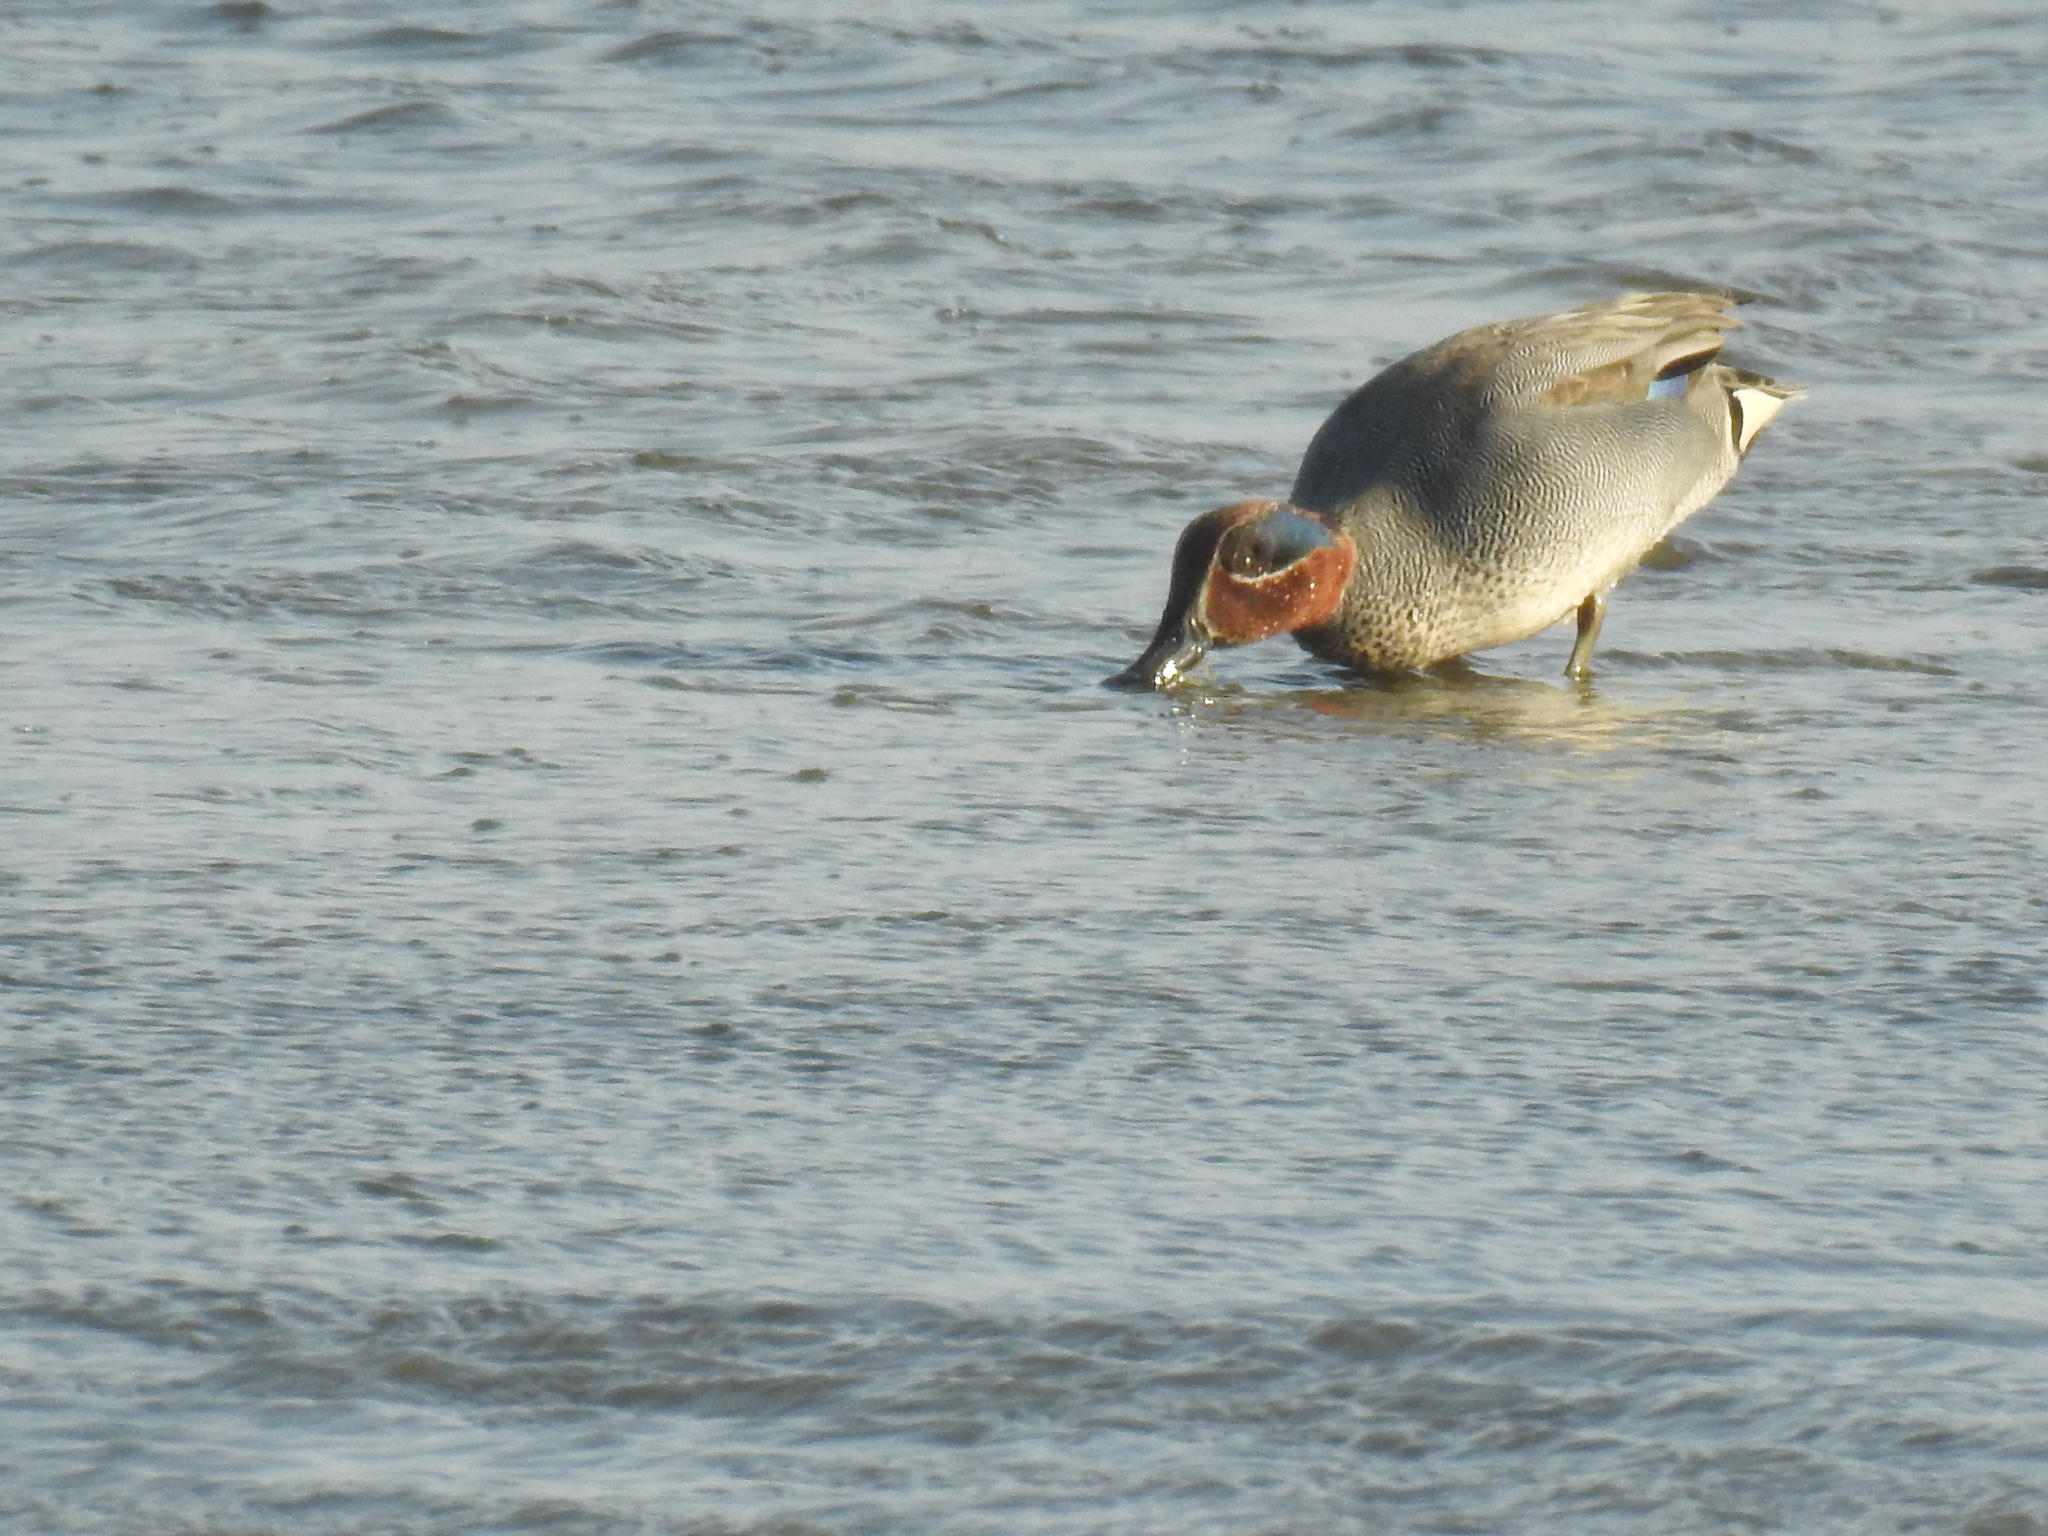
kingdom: Animalia
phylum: Chordata
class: Aves
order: Anseriformes
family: Anatidae
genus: Anas
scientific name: Anas crecca
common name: Eurasian teal
